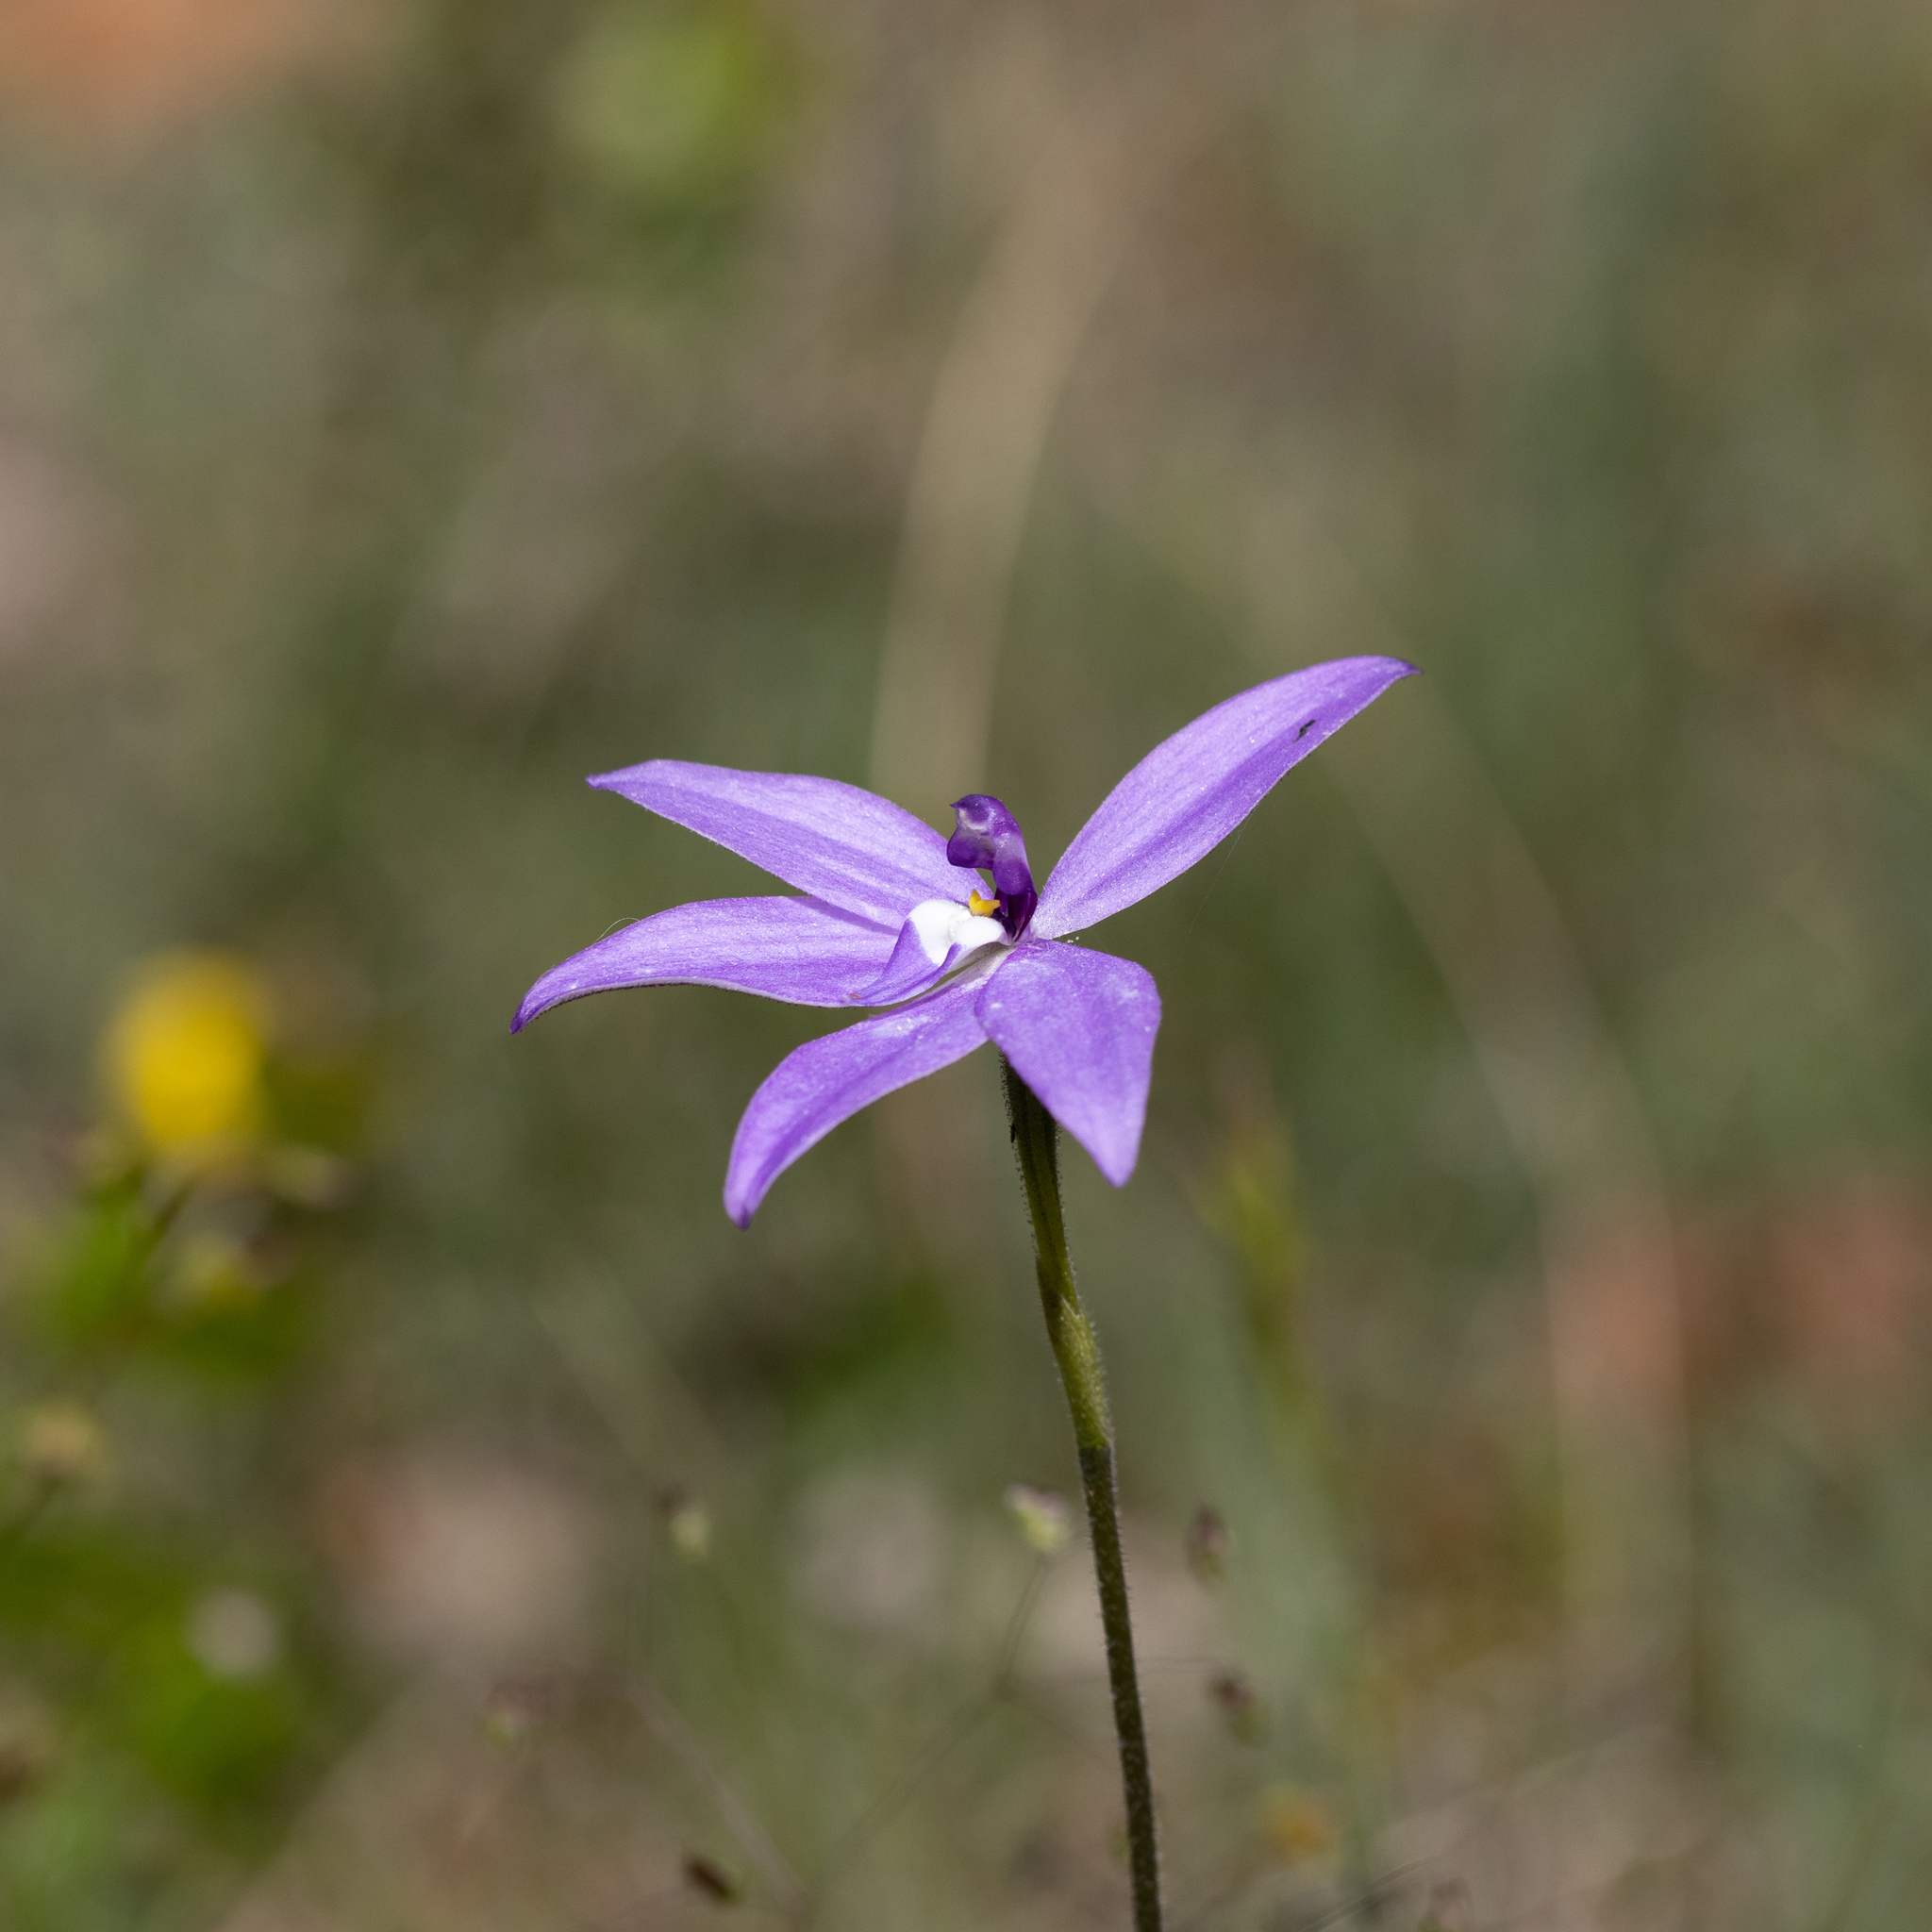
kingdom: Plantae
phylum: Tracheophyta
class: Liliopsida
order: Asparagales
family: Orchidaceae
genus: Caladenia
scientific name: Caladenia major
